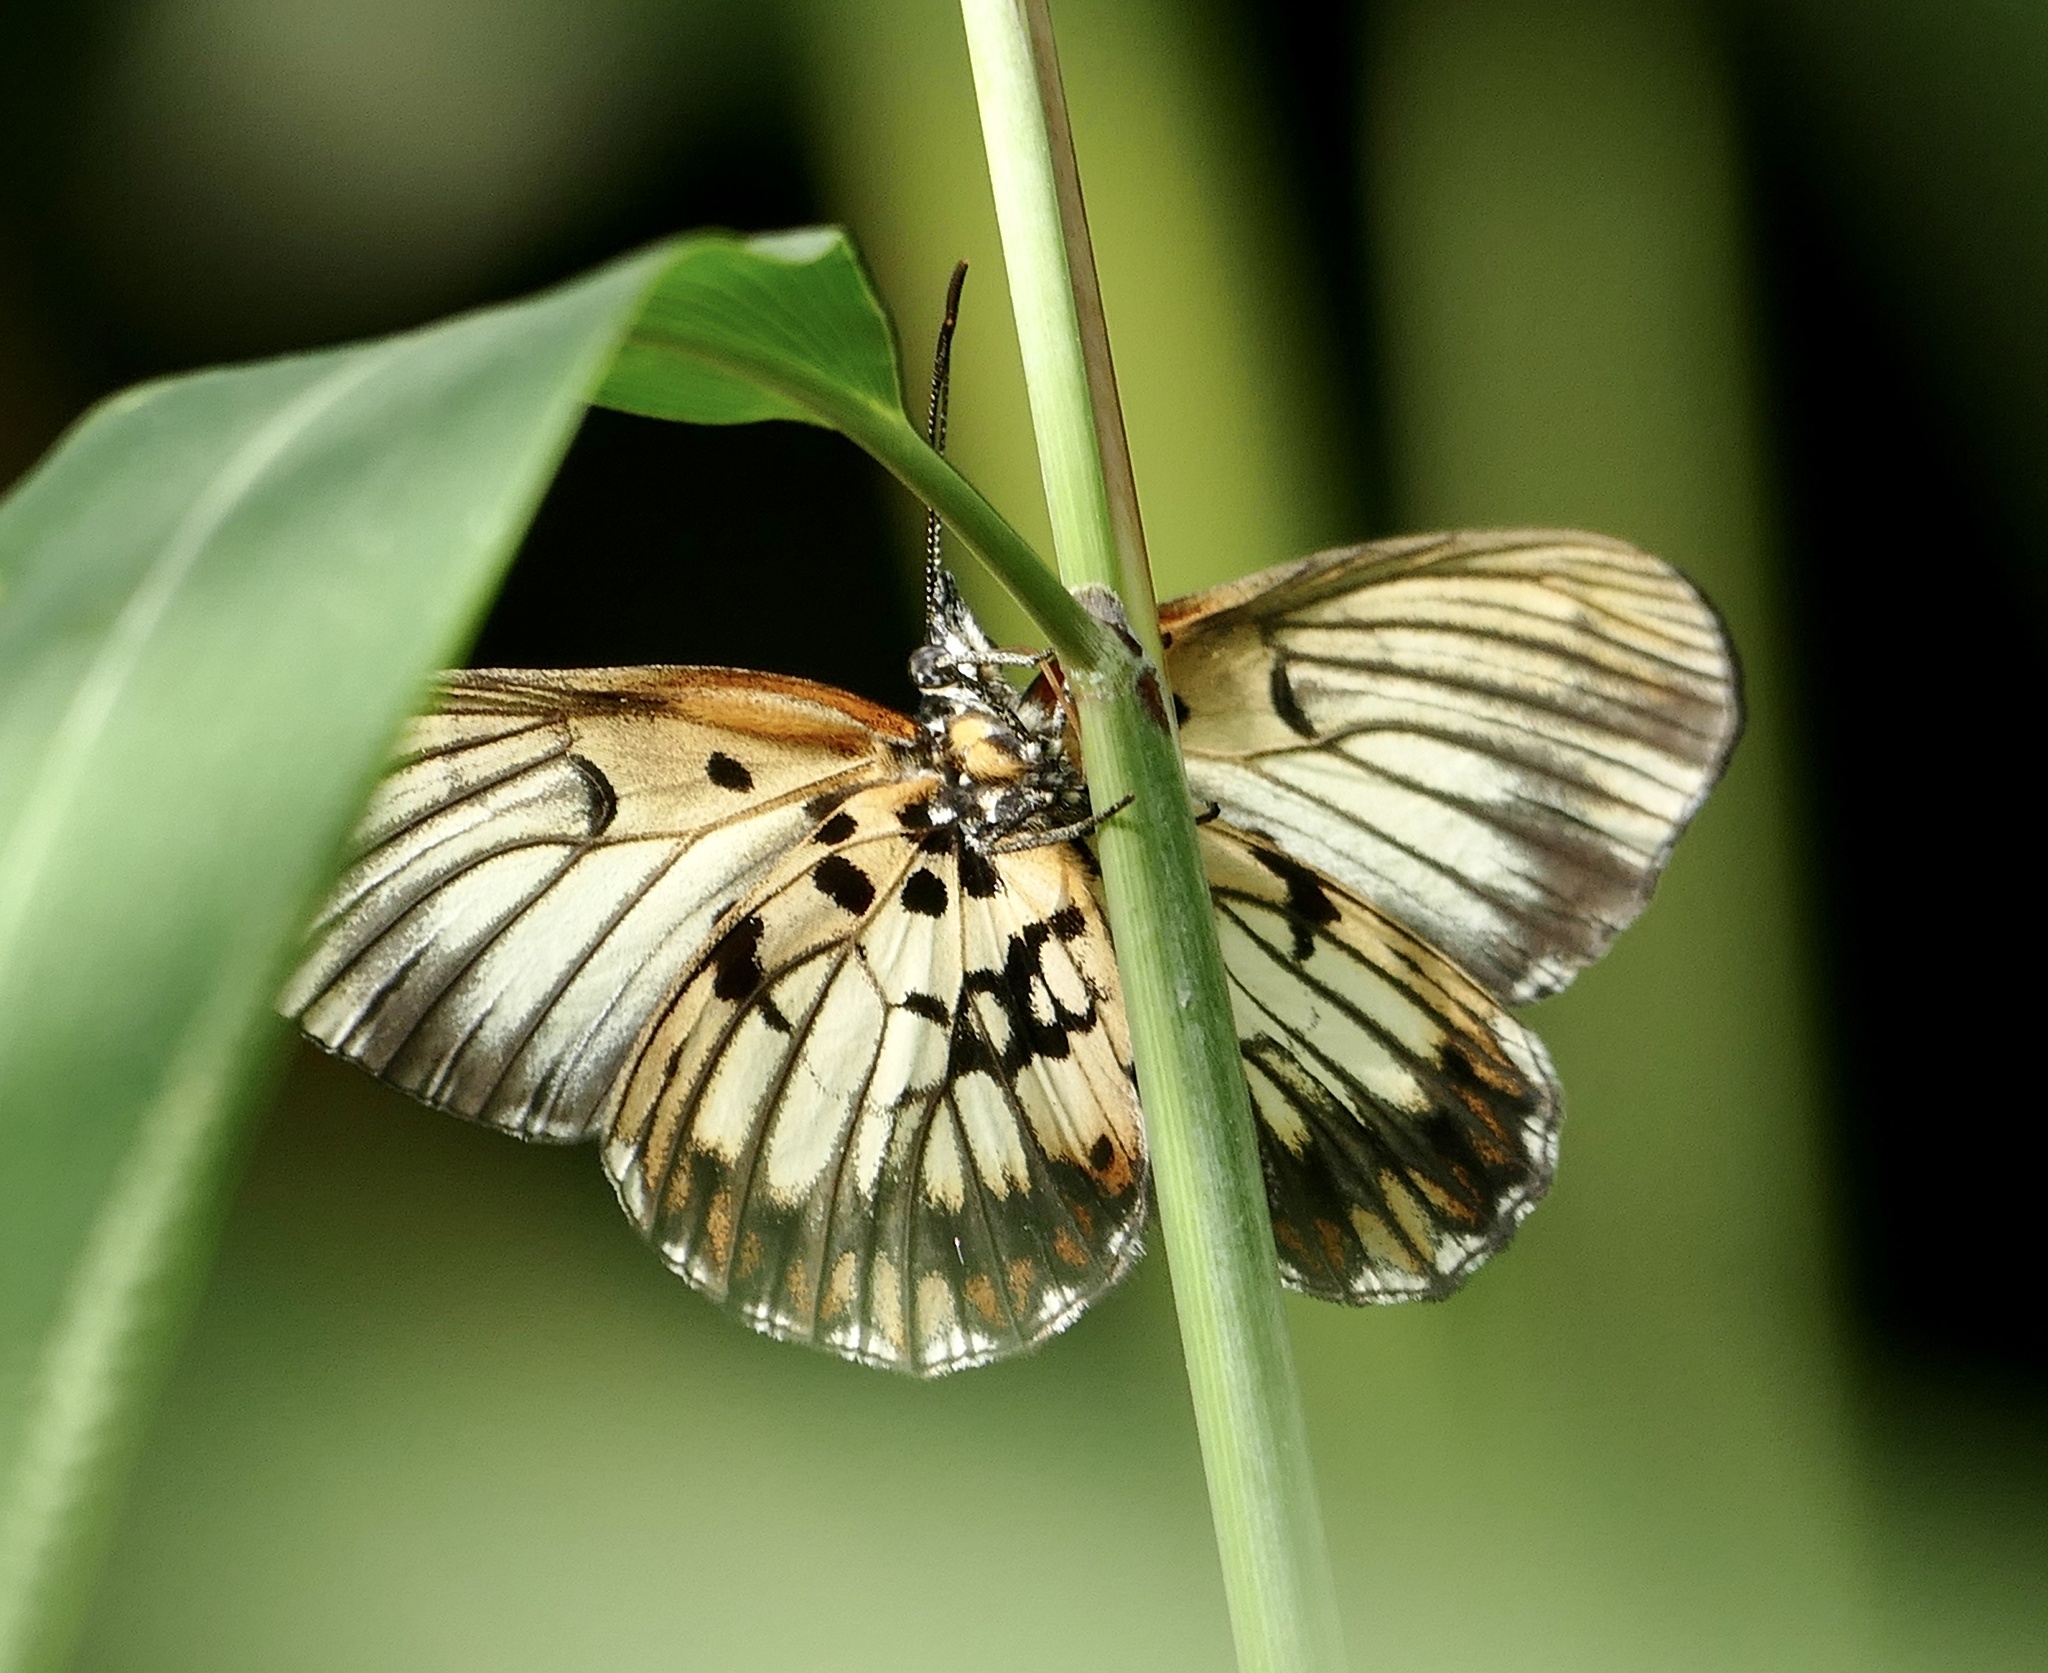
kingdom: Animalia
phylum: Arthropoda
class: Insecta
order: Lepidoptera
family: Nymphalidae
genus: Mesoxantha
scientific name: Mesoxantha ethosea
